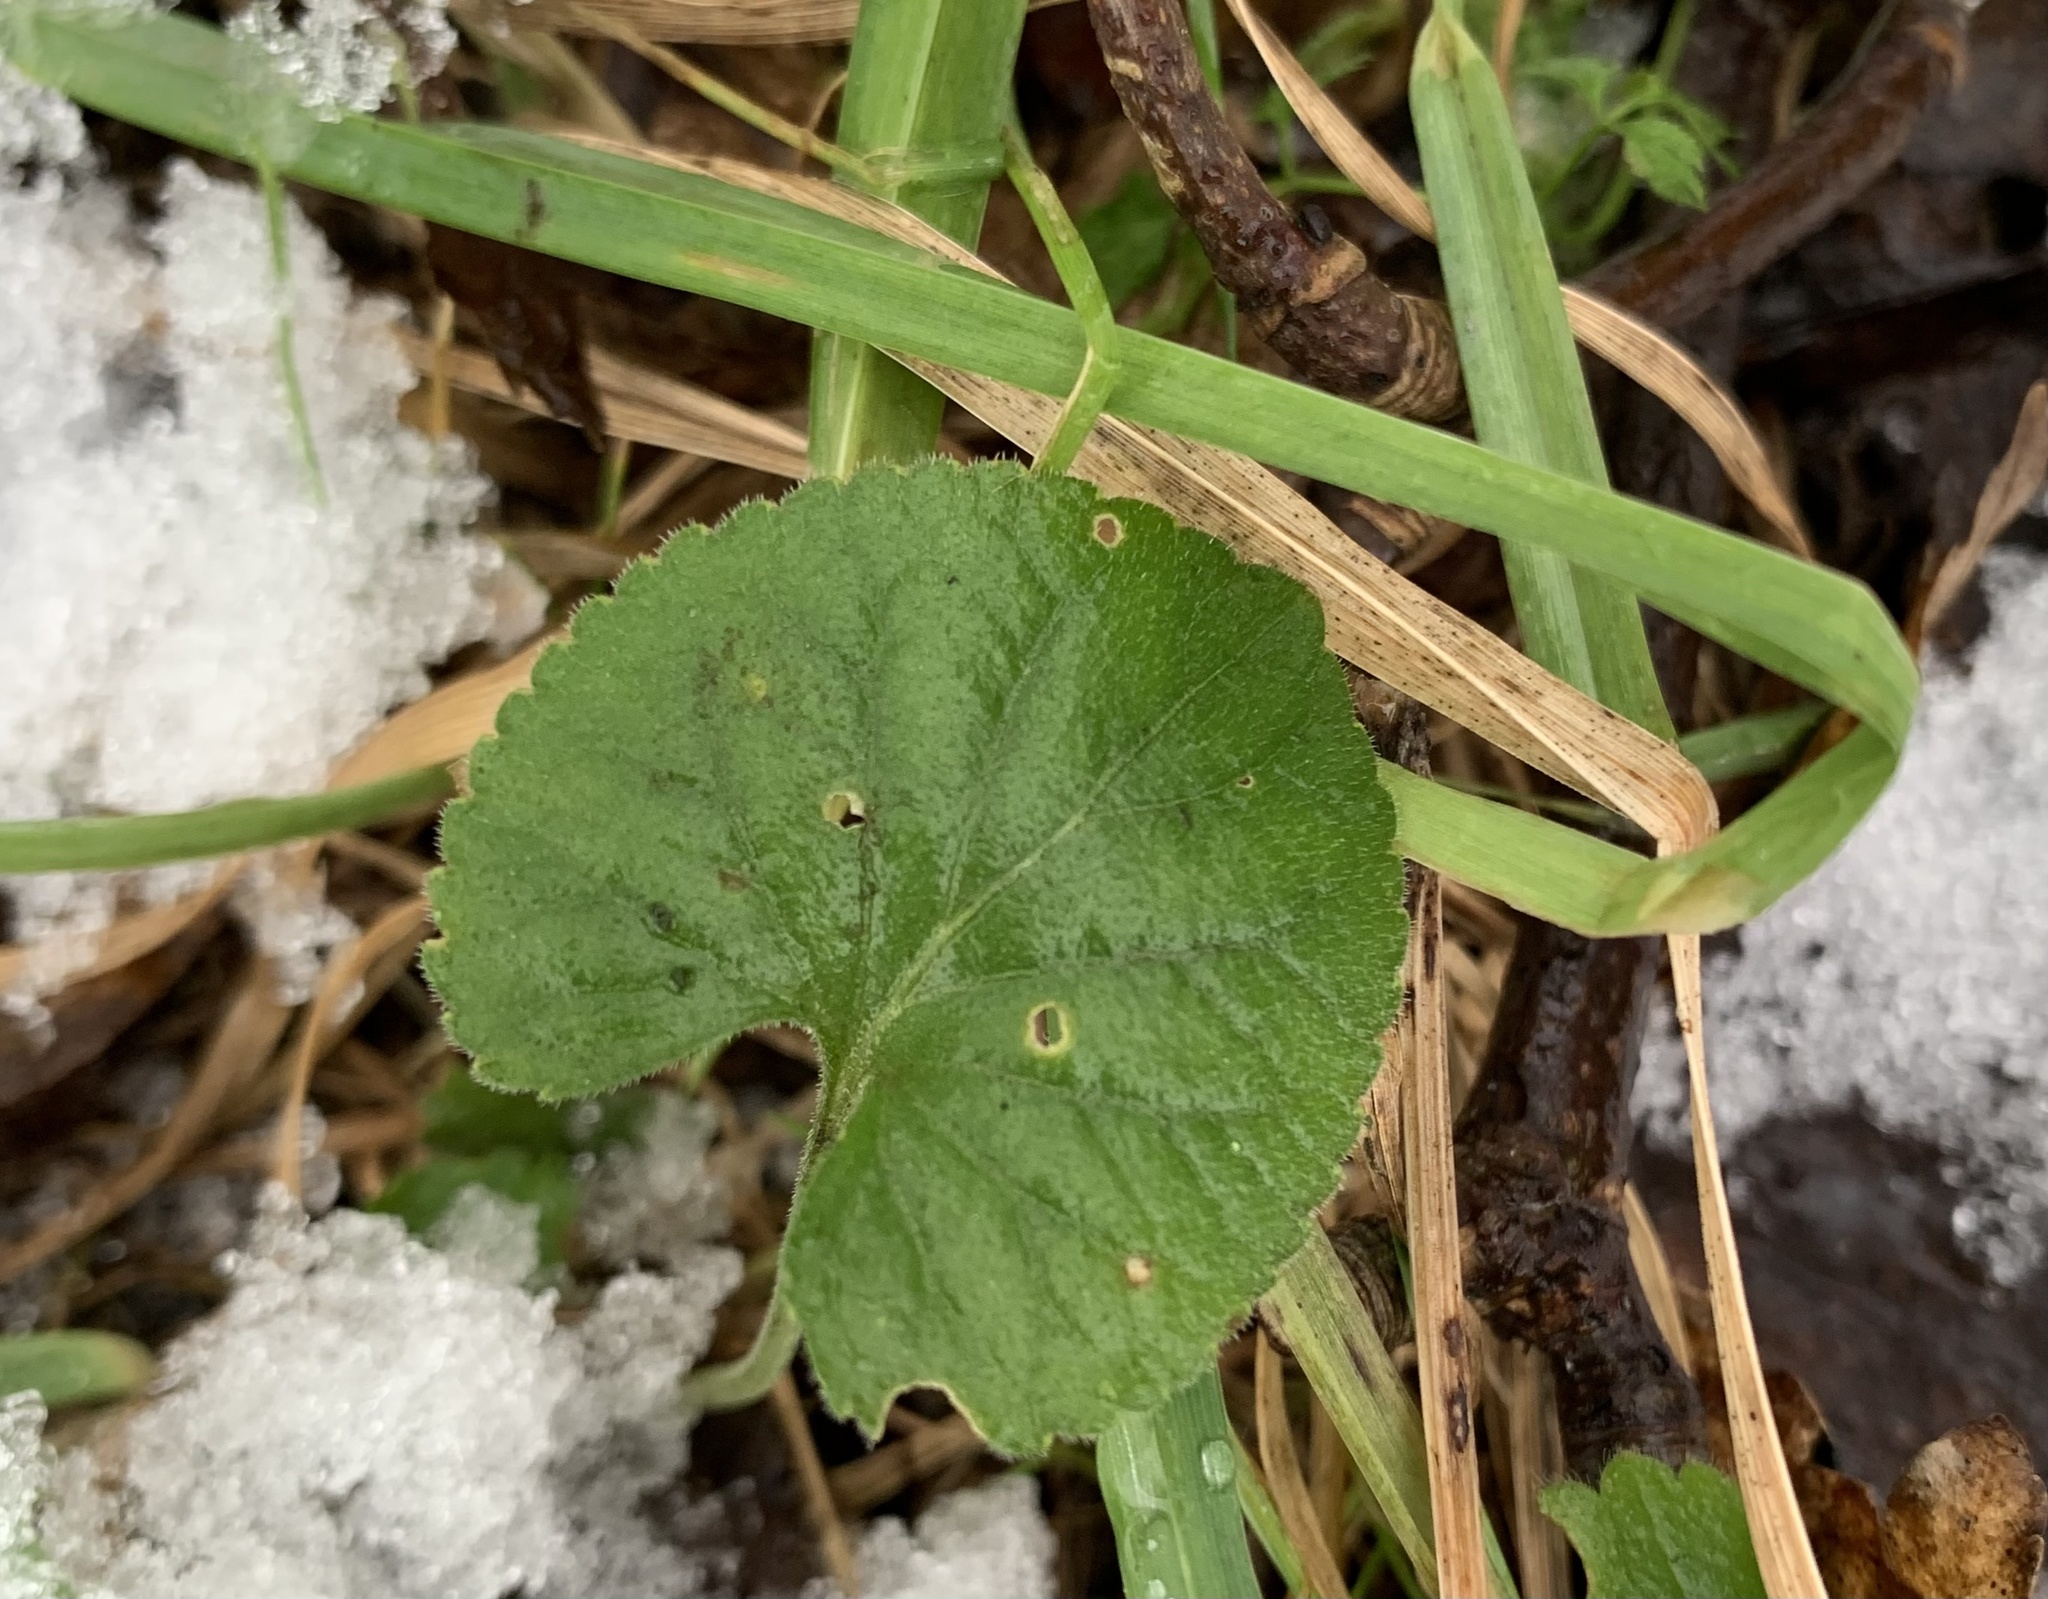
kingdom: Plantae
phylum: Tracheophyta
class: Magnoliopsida
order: Malpighiales
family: Violaceae
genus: Viola
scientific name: Viola odorata
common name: Sweet violet
